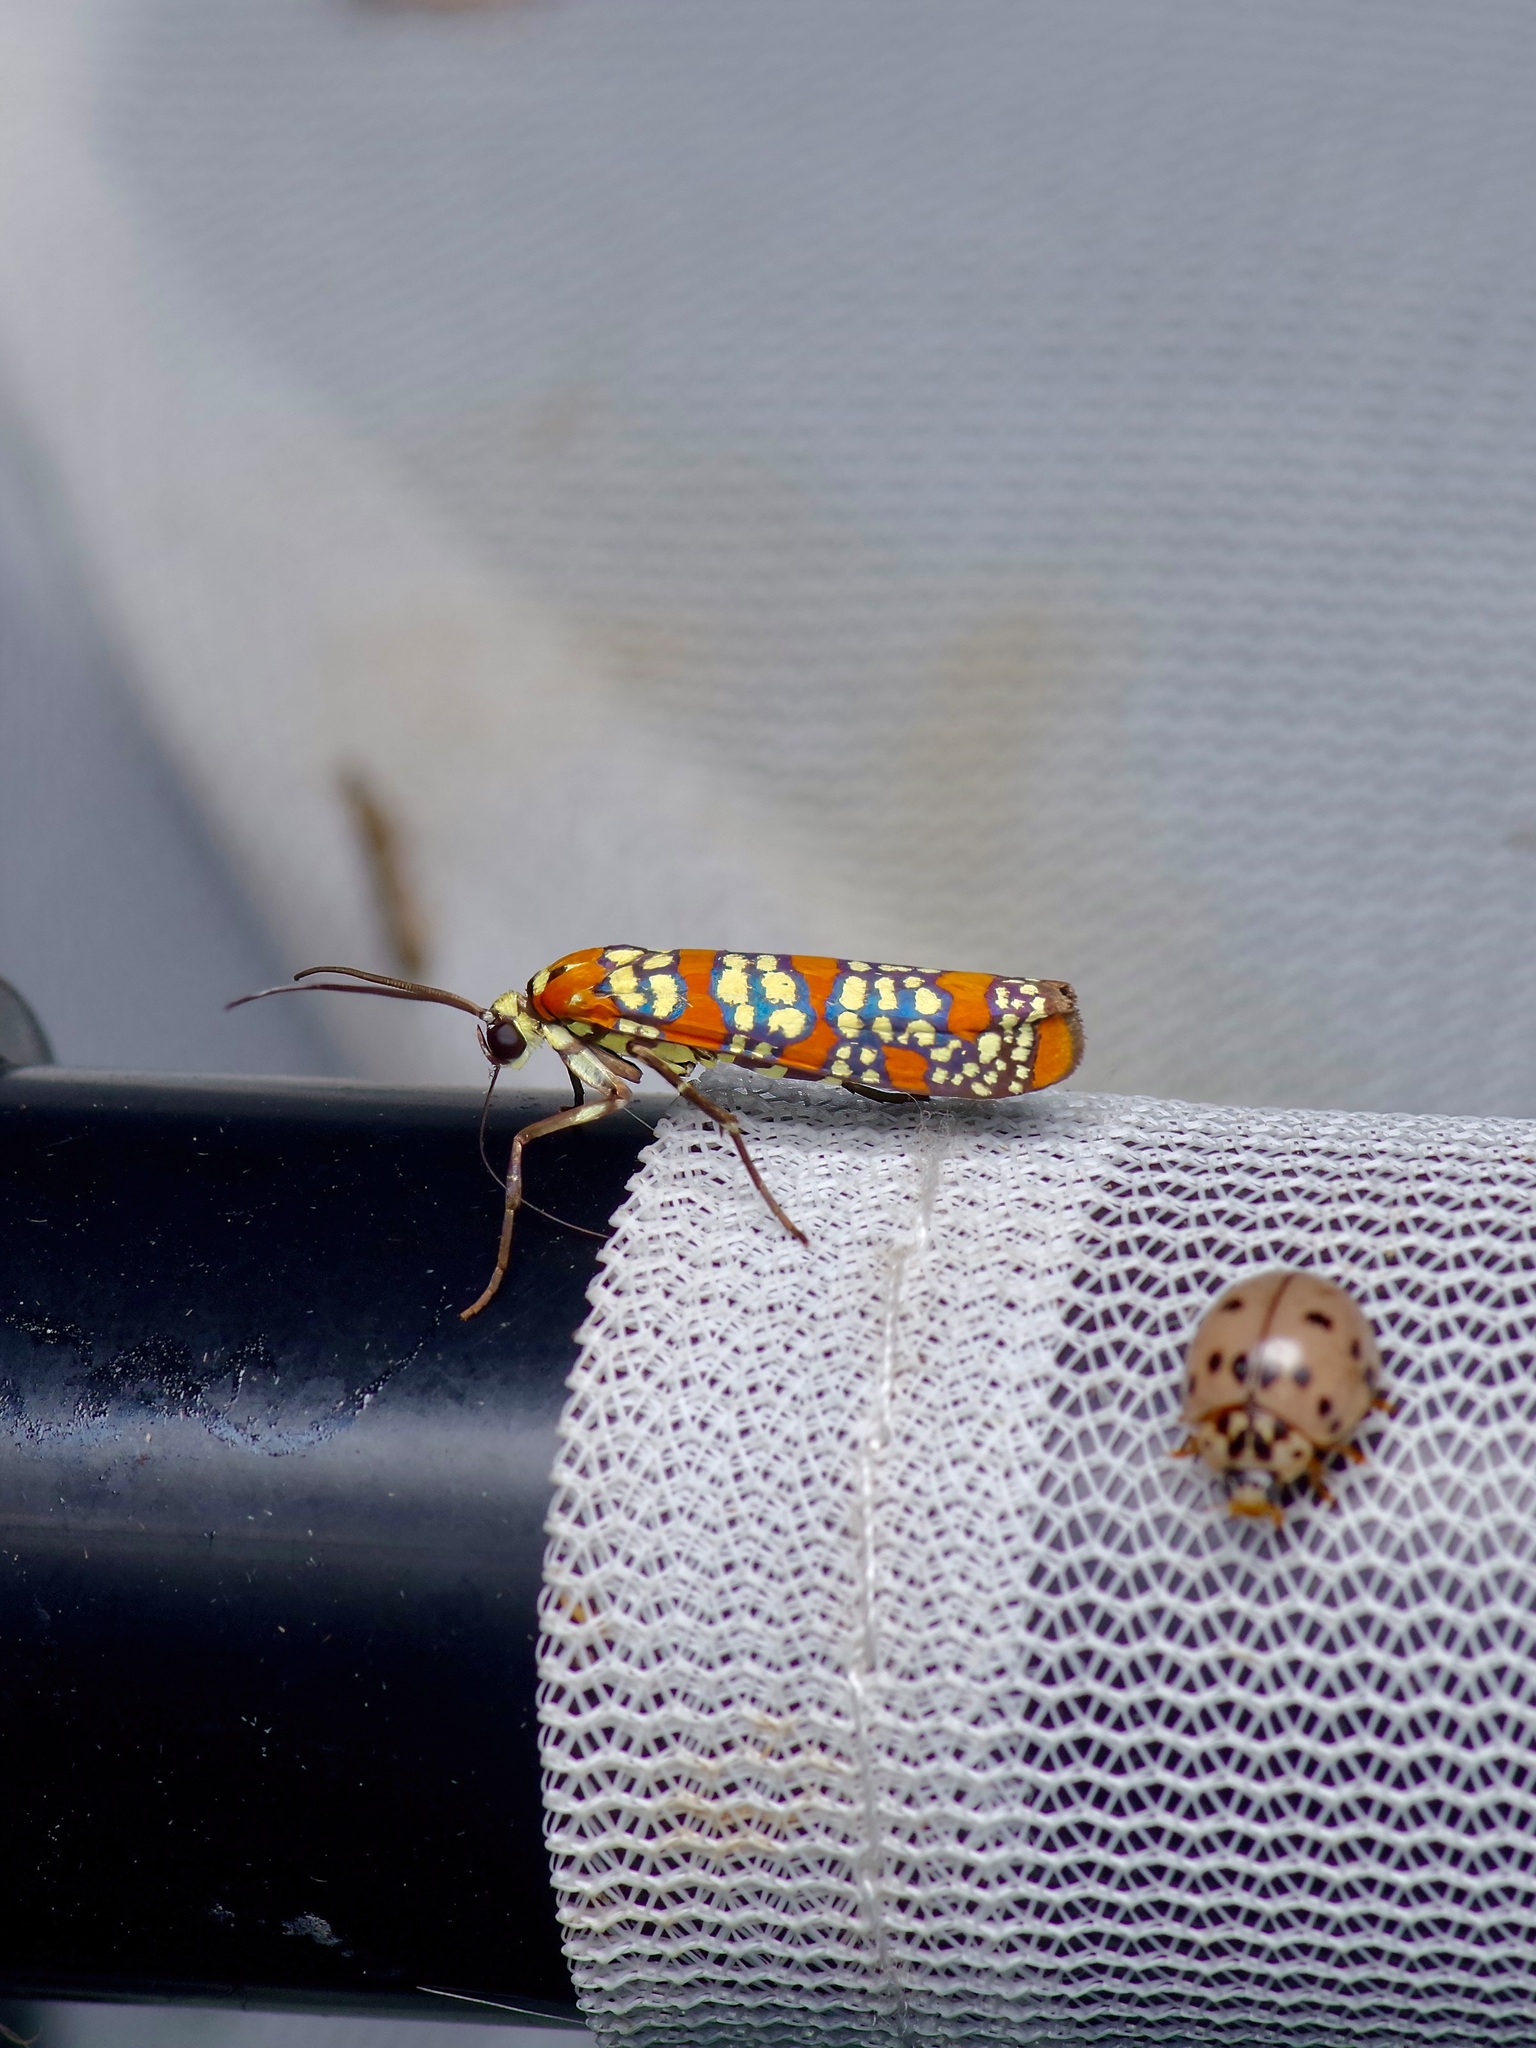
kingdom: Animalia
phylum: Arthropoda
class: Insecta
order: Lepidoptera
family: Attevidae
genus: Atteva
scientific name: Atteva punctella
